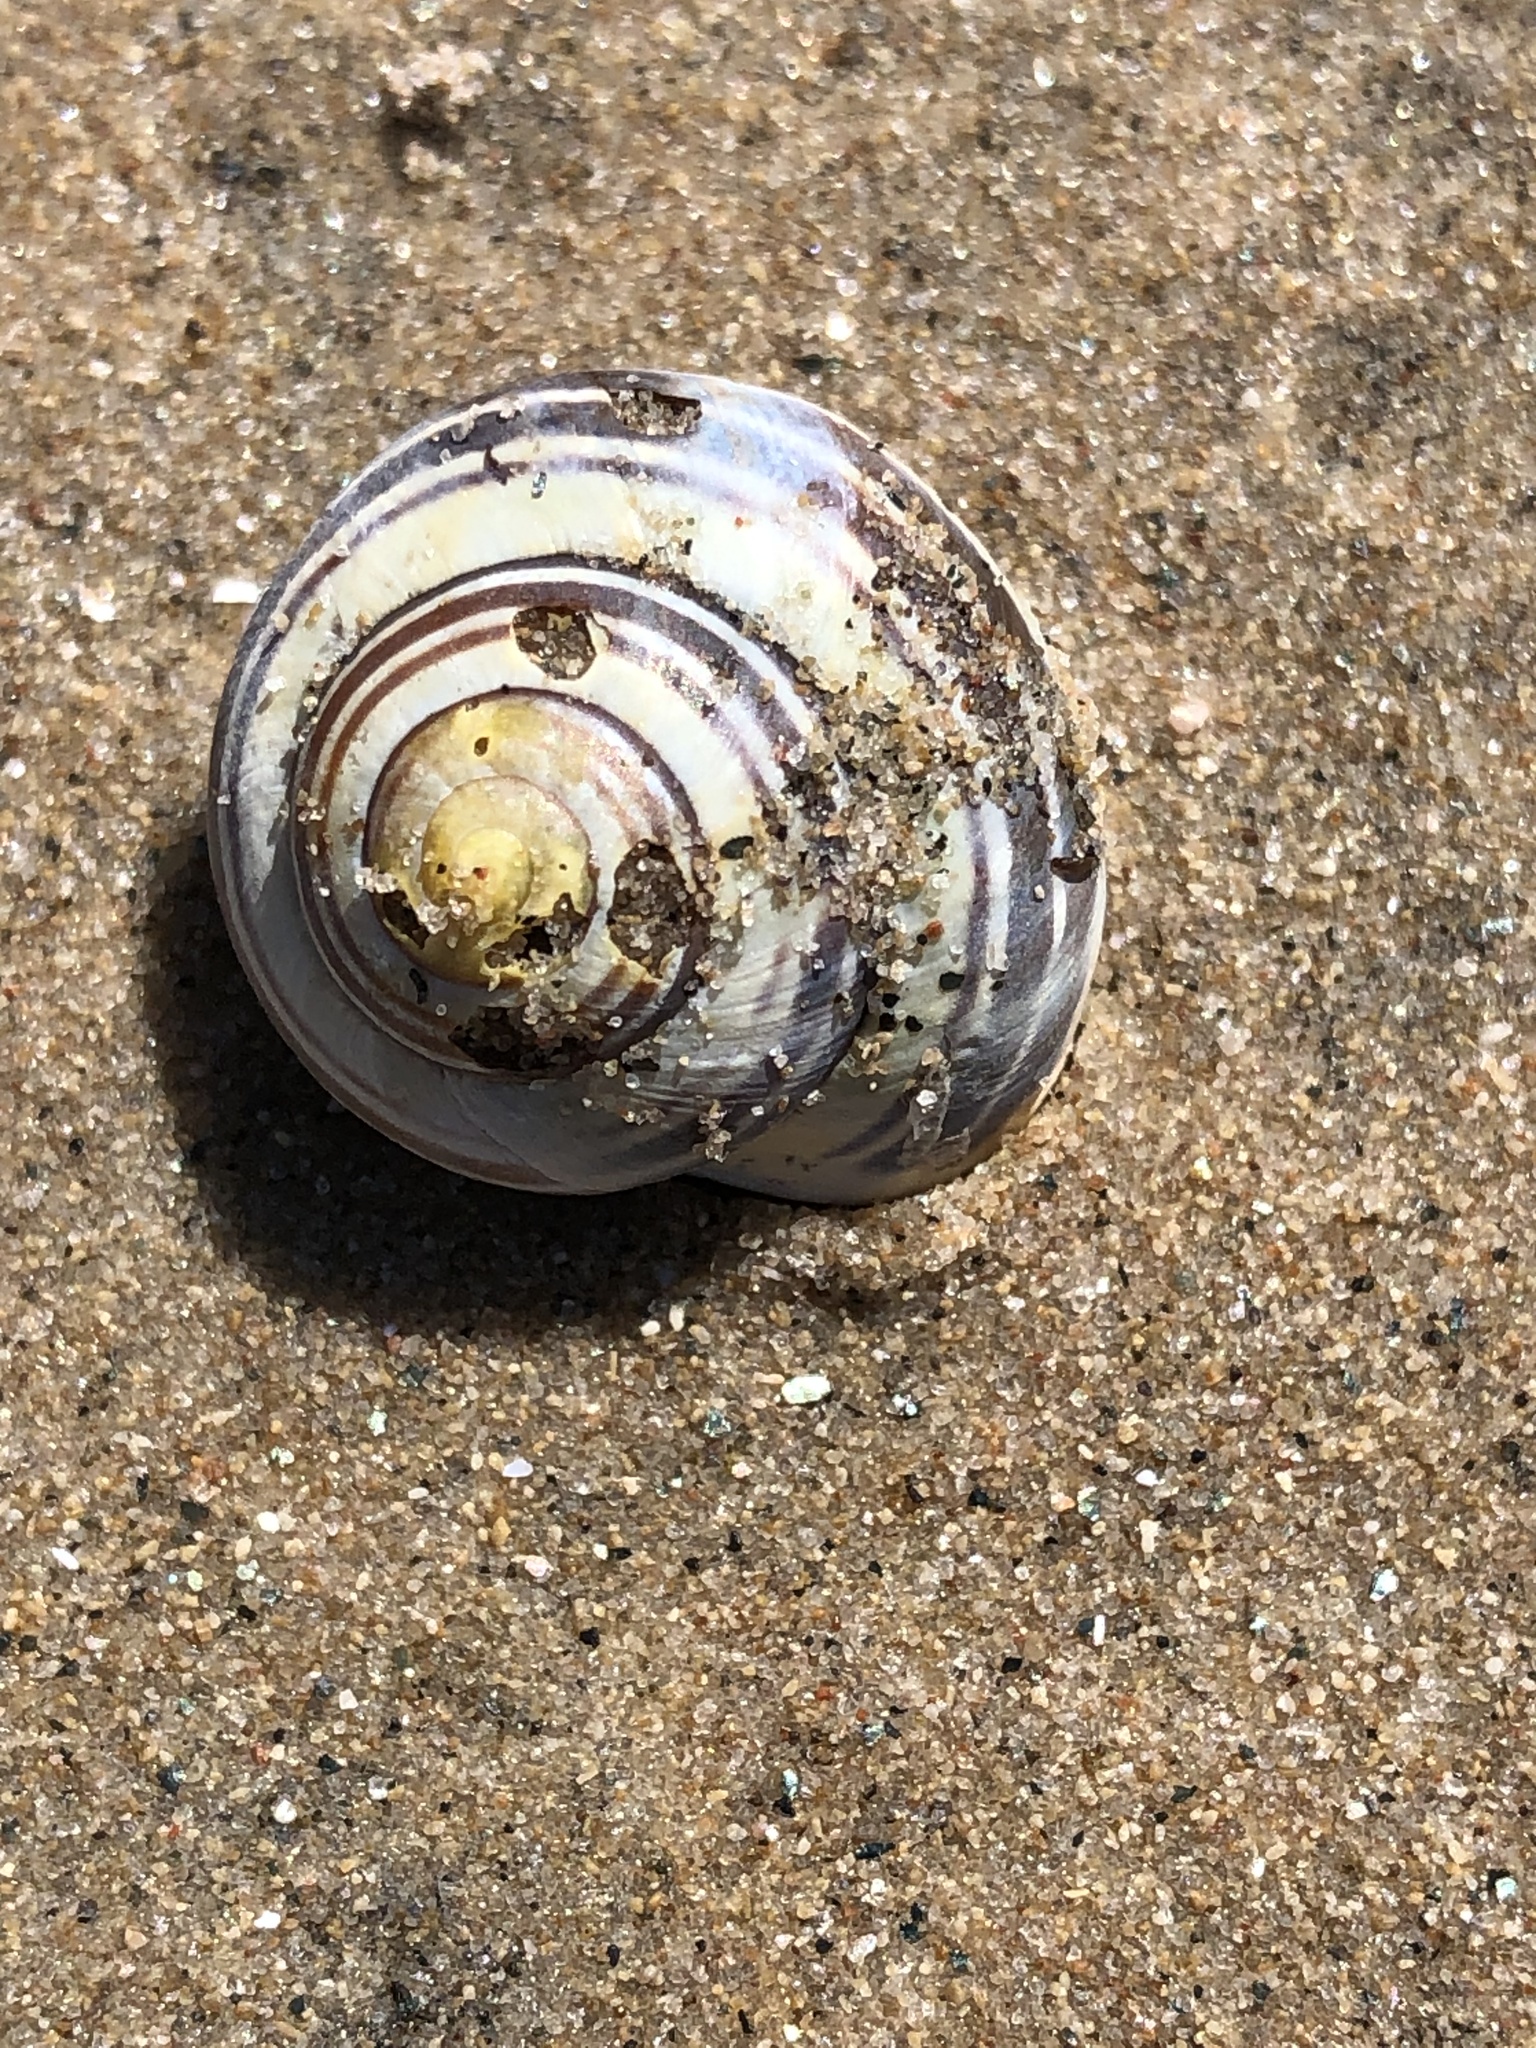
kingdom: Animalia
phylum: Mollusca
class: Gastropoda
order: Stylommatophora
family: Helicidae
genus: Cepaea
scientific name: Cepaea nemoralis
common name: Grovesnail
